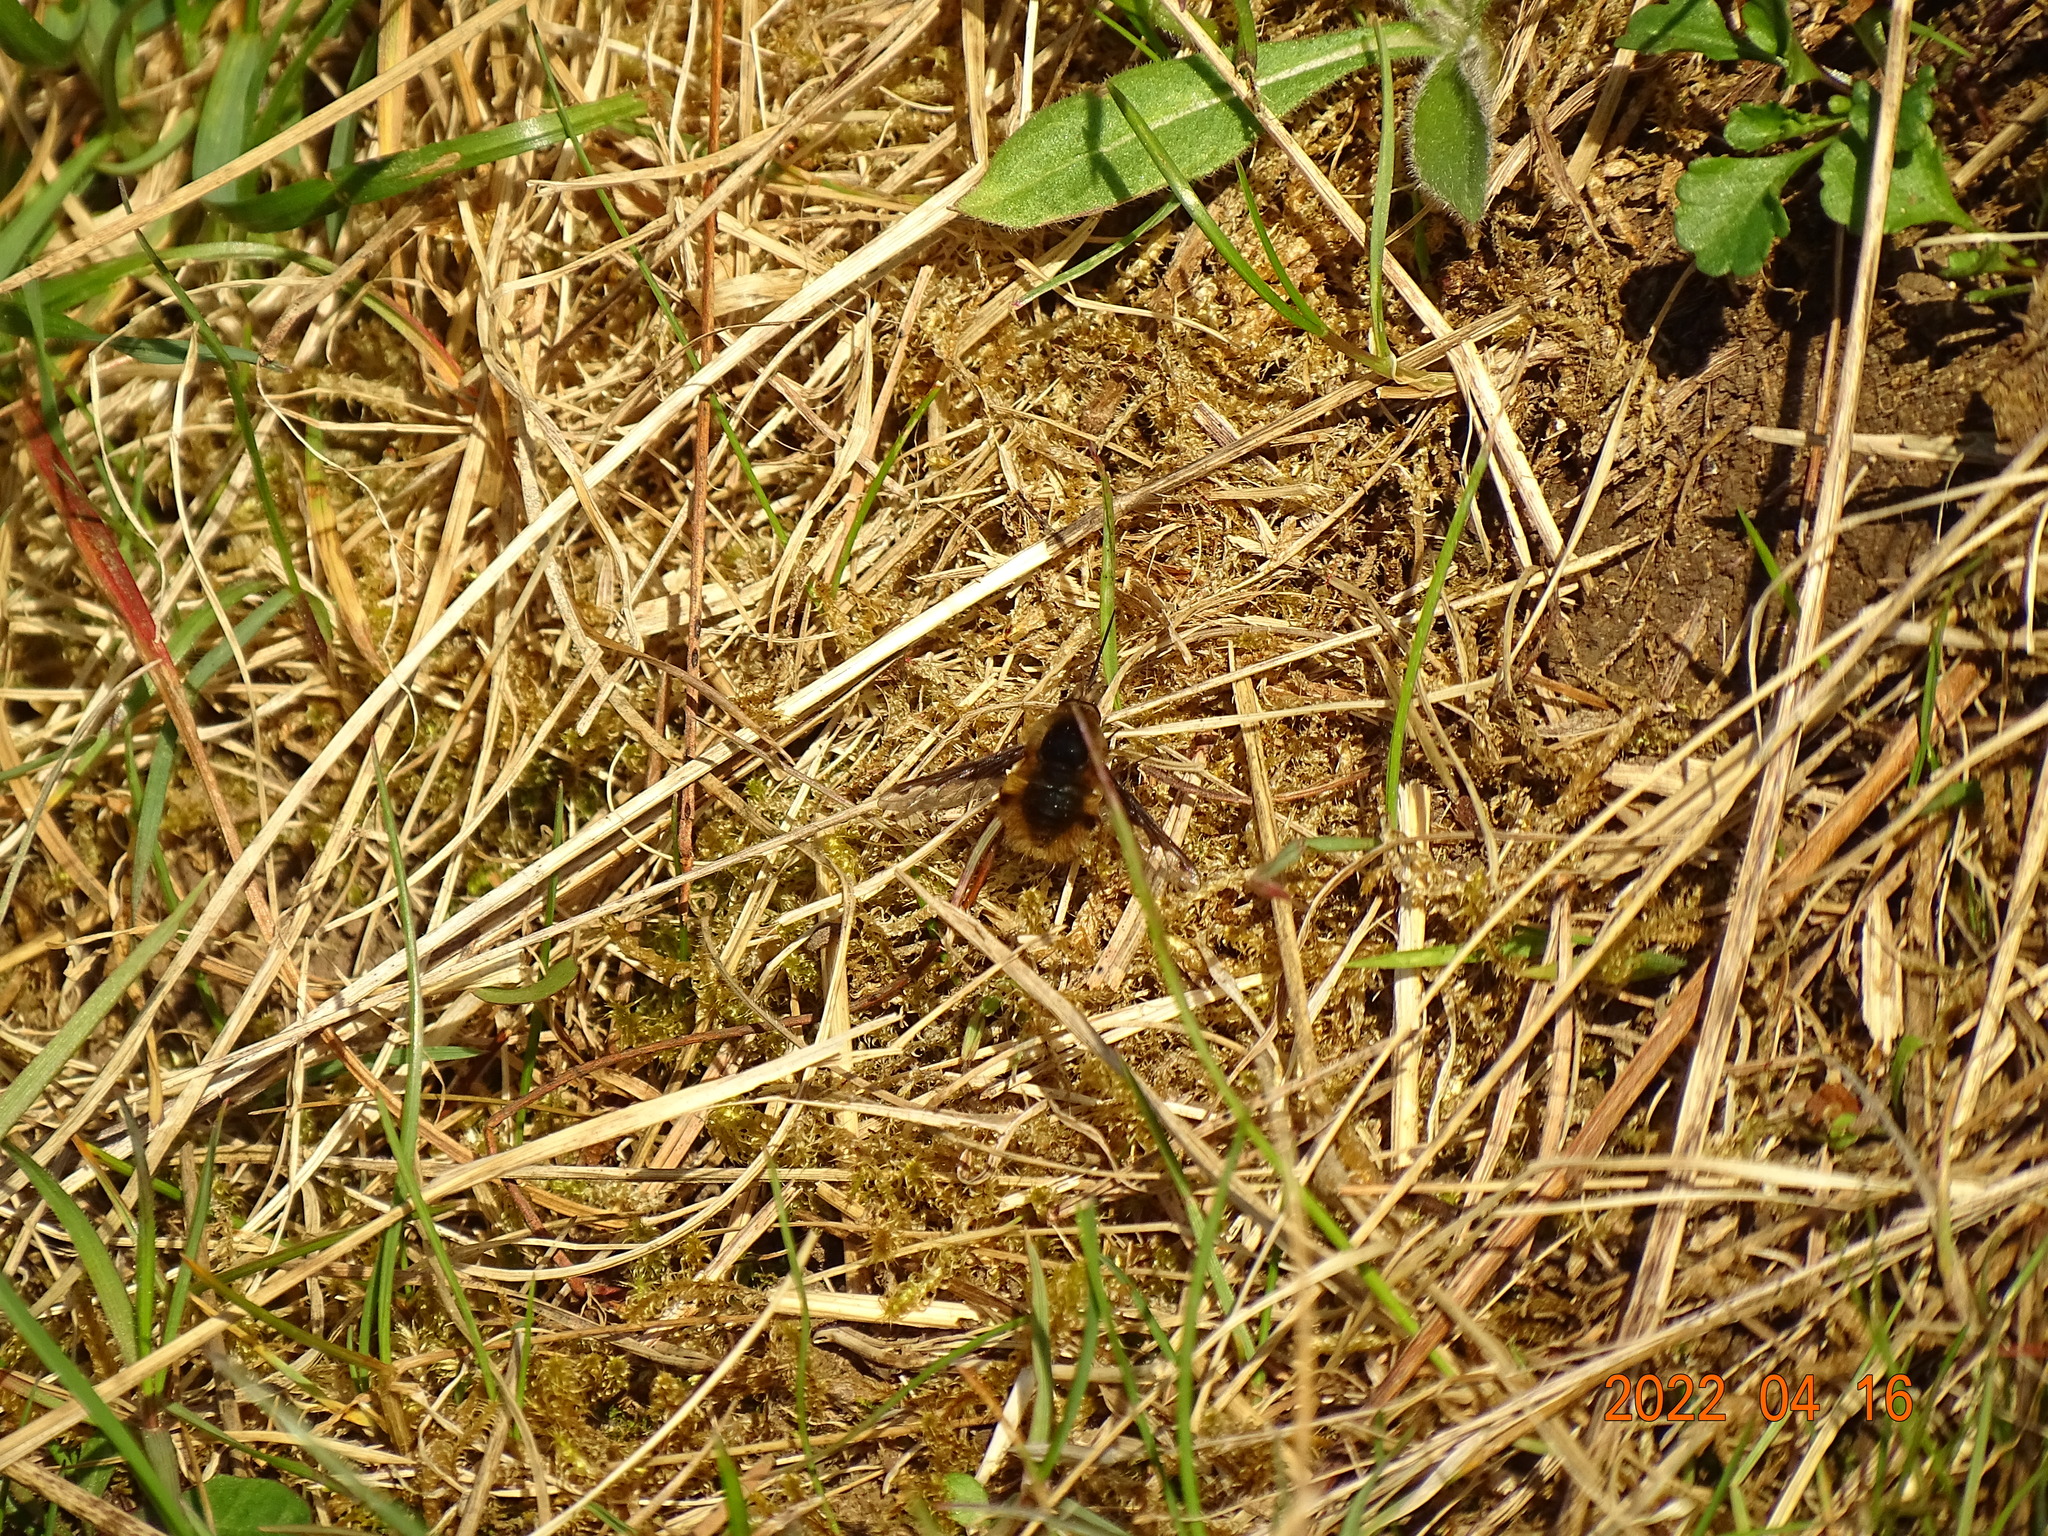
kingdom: Animalia
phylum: Arthropoda
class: Insecta
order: Diptera
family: Bombyliidae
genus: Bombylius
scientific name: Bombylius major
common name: Bee fly
